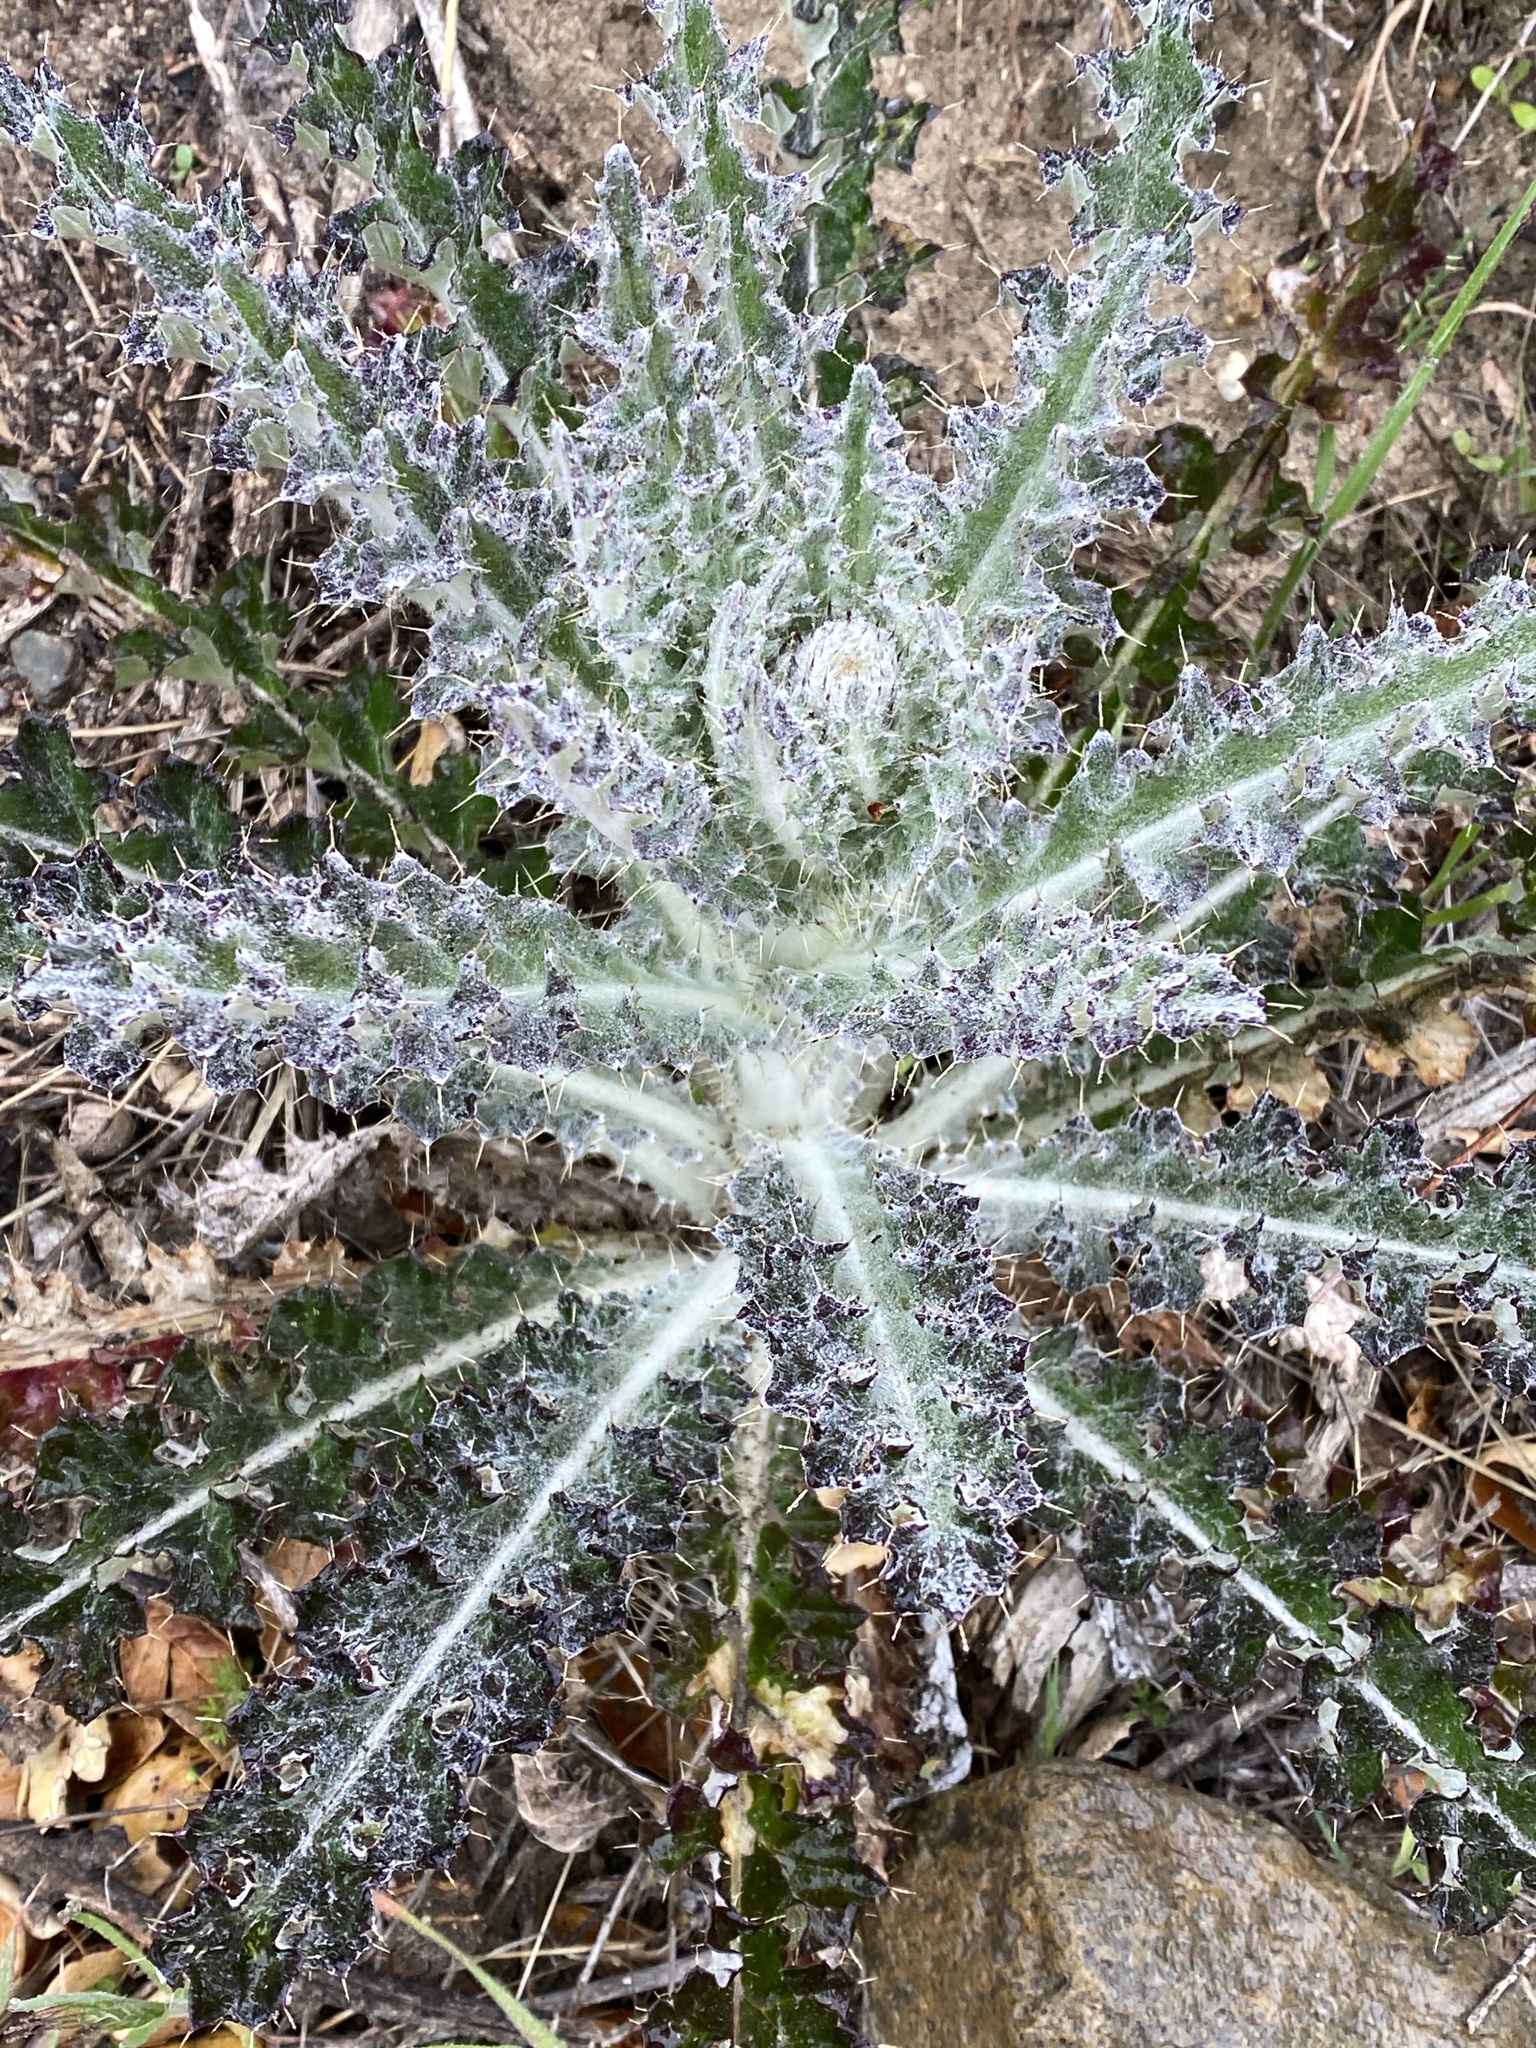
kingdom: Plantae
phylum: Tracheophyta
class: Magnoliopsida
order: Asterales
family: Asteraceae
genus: Cirsium
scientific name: Cirsium occidentale
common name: Western thistle
